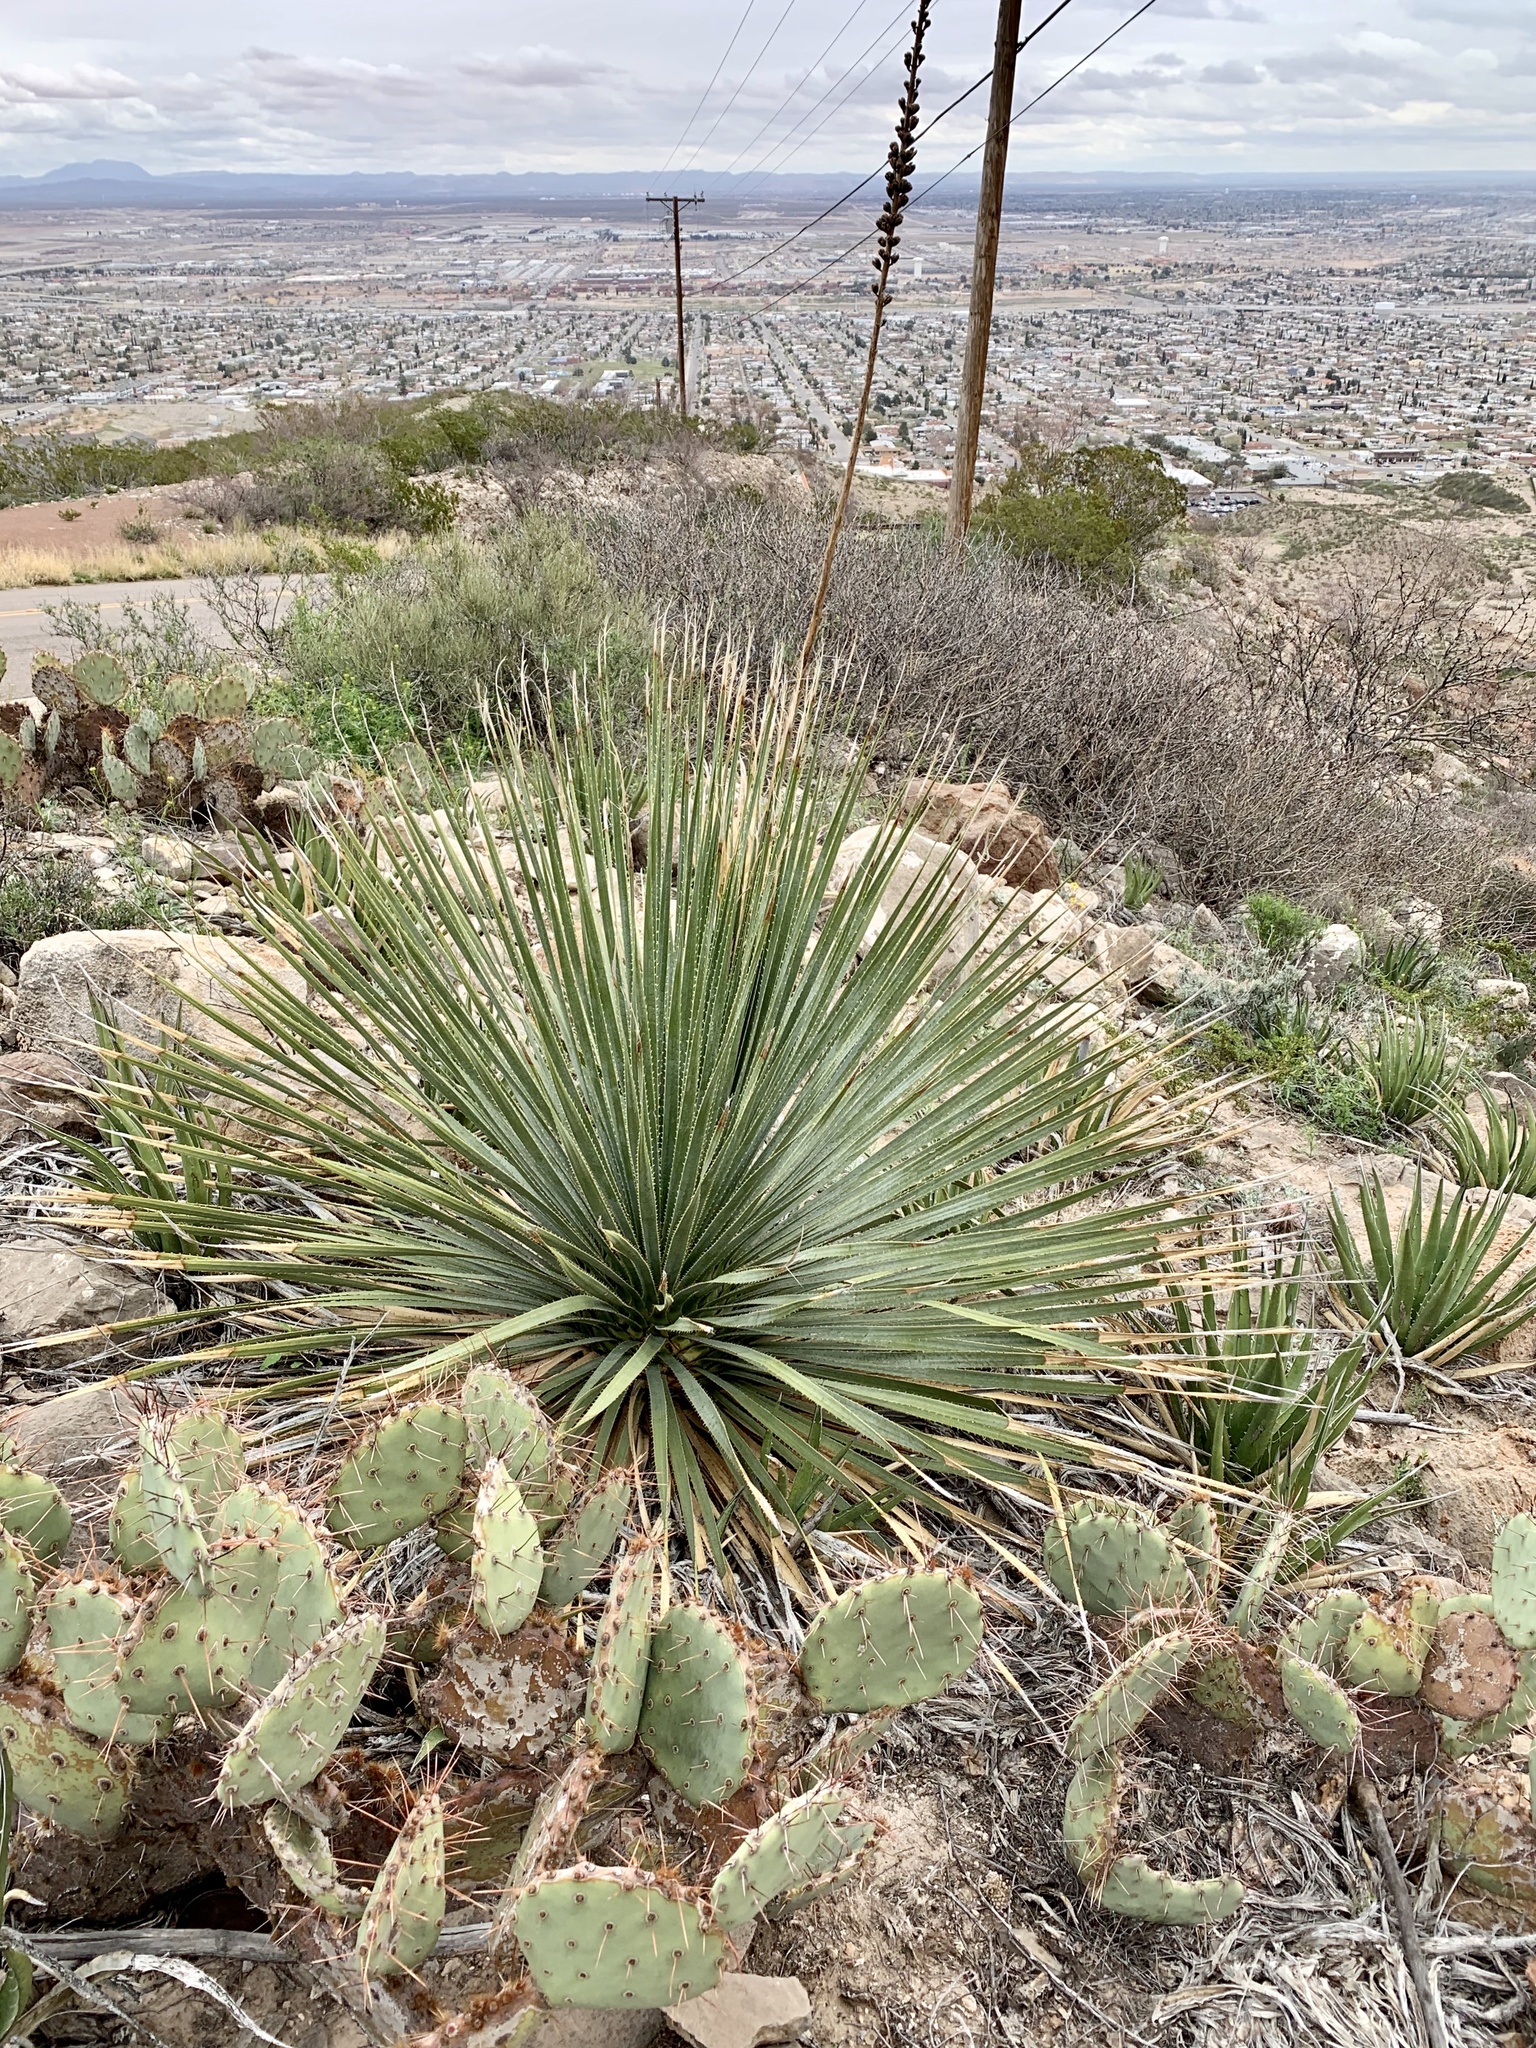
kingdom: Plantae
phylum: Tracheophyta
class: Liliopsida
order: Asparagales
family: Asparagaceae
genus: Dasylirion
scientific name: Dasylirion wheeleri
